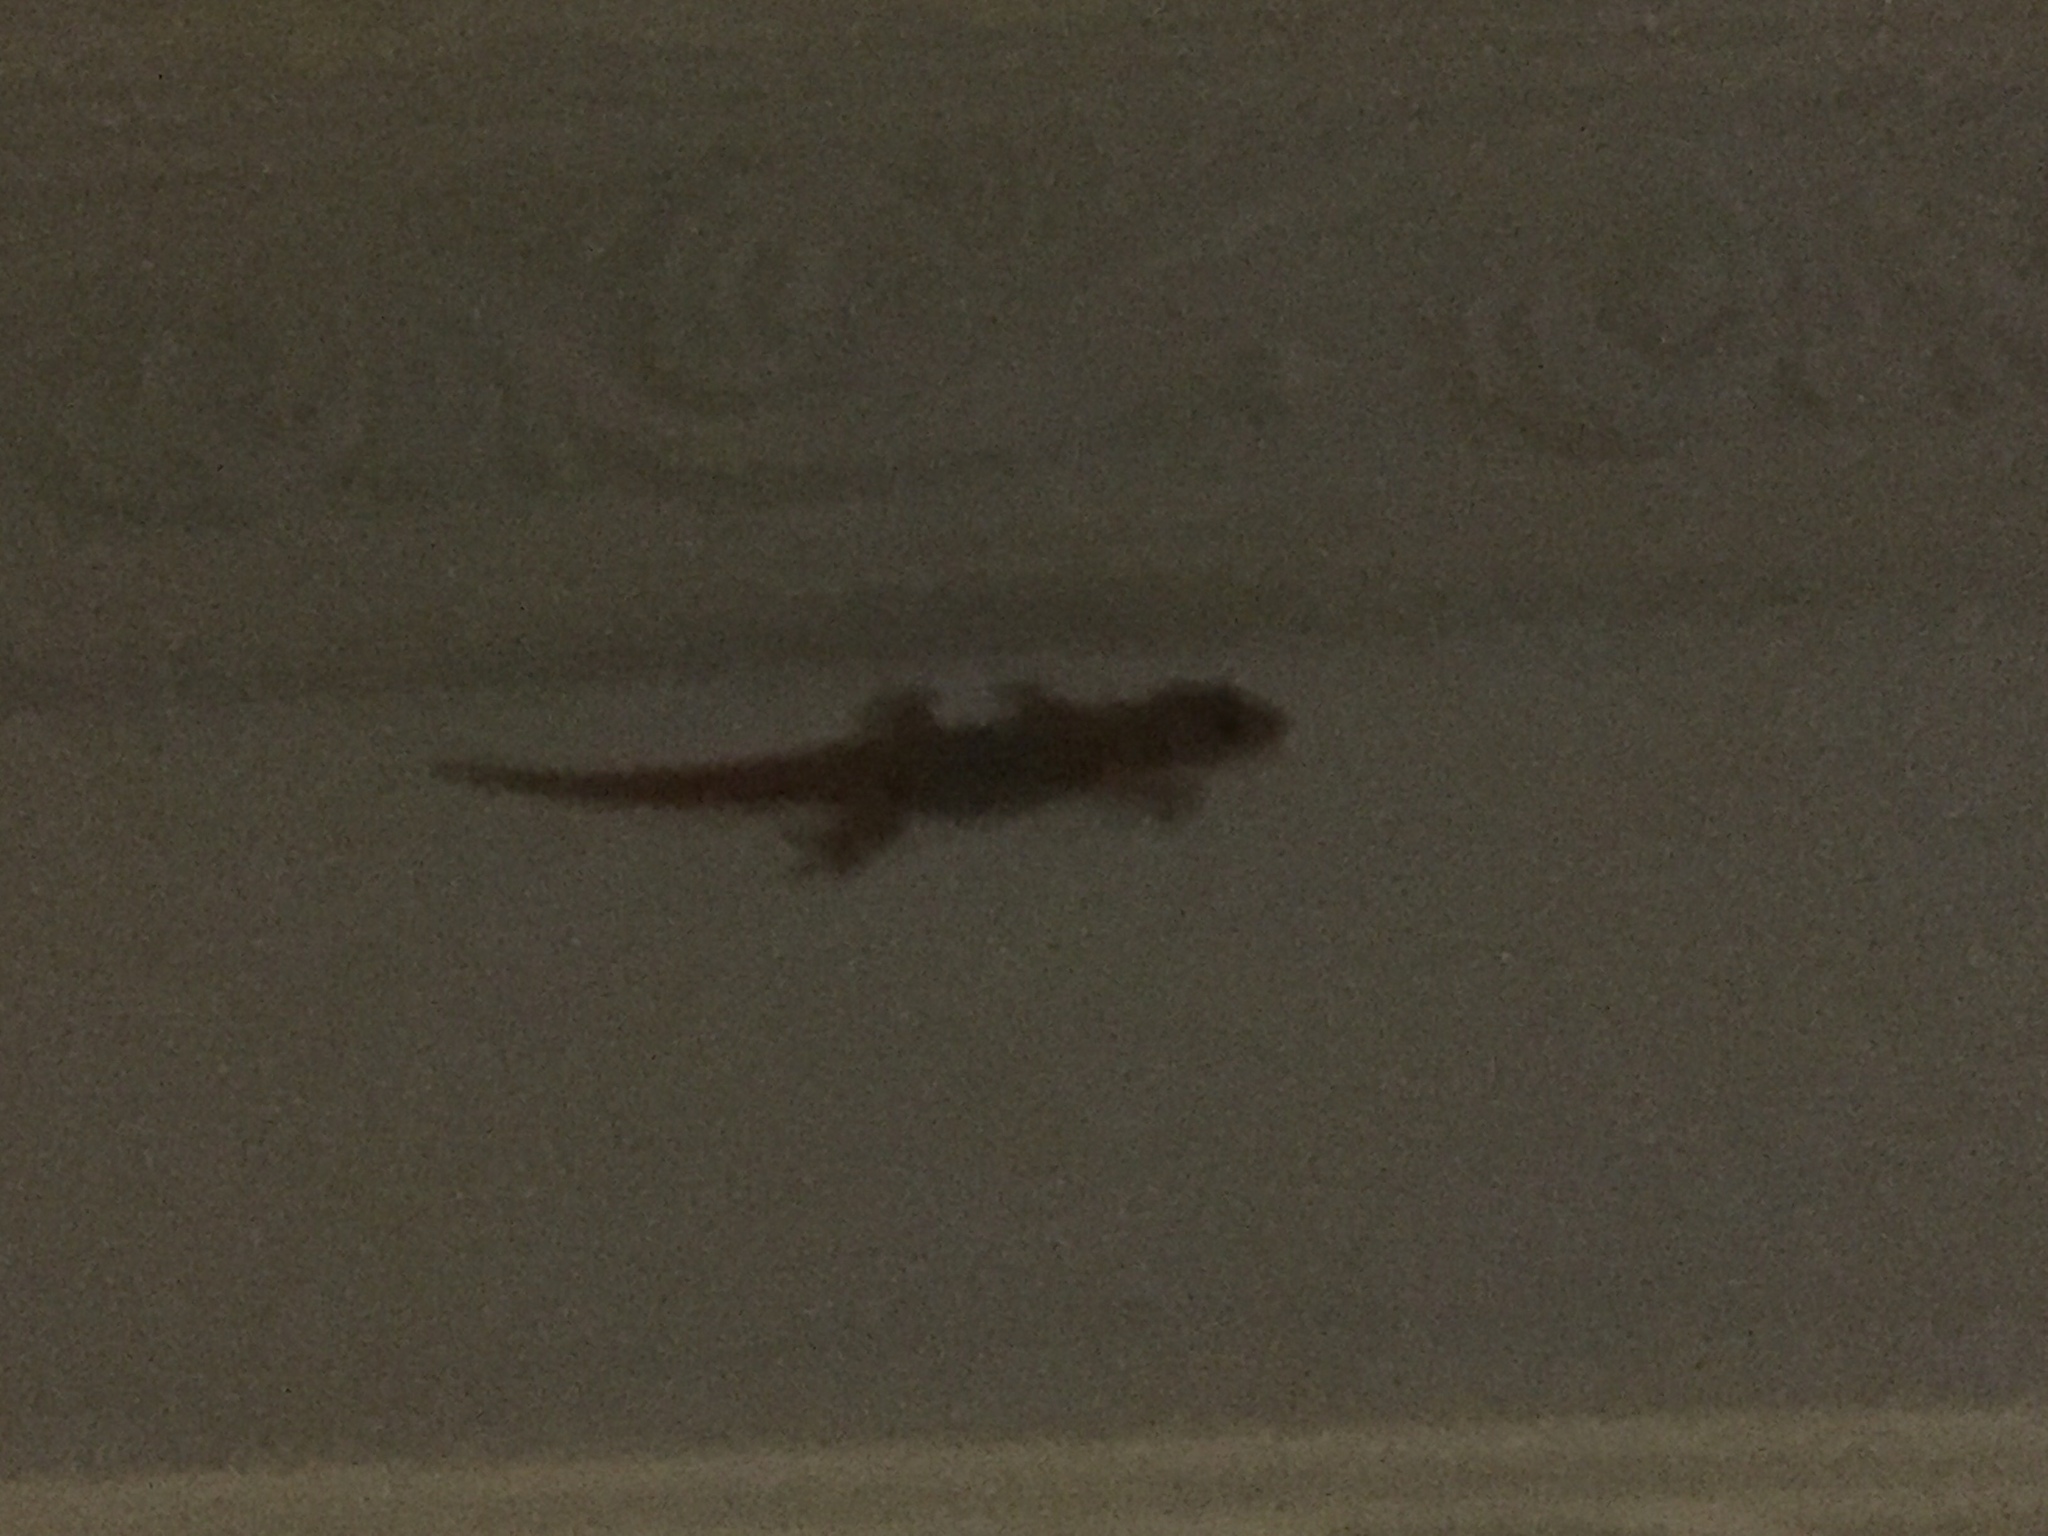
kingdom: Animalia
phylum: Chordata
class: Squamata
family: Gekkonidae
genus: Gehyra
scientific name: Gehyra mutilata
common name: Stump-toed gecko
